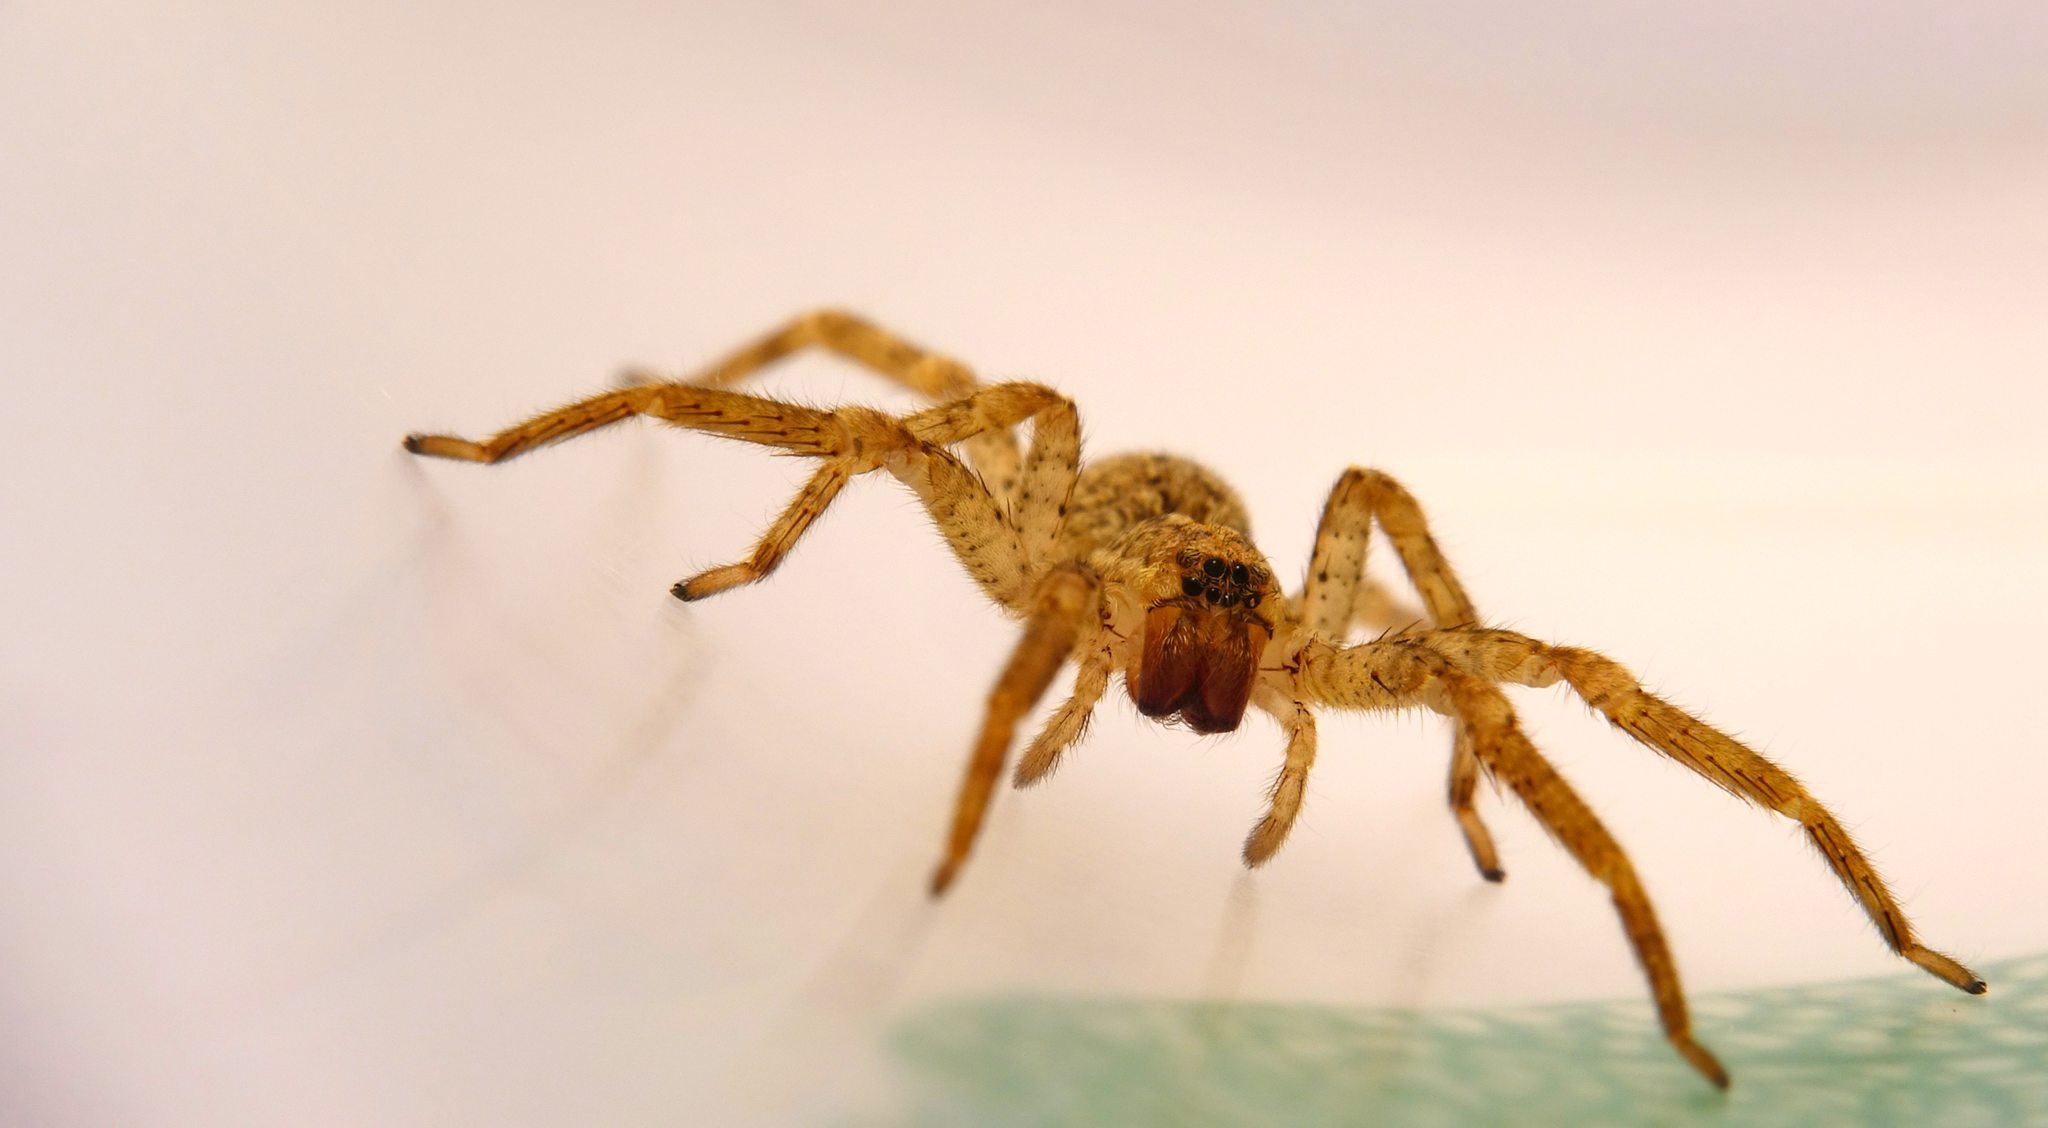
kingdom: Animalia
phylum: Arthropoda
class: Arachnida
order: Araneae
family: Zoropsidae
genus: Zoropsis
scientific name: Zoropsis spinimana
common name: Zoropsid spider
